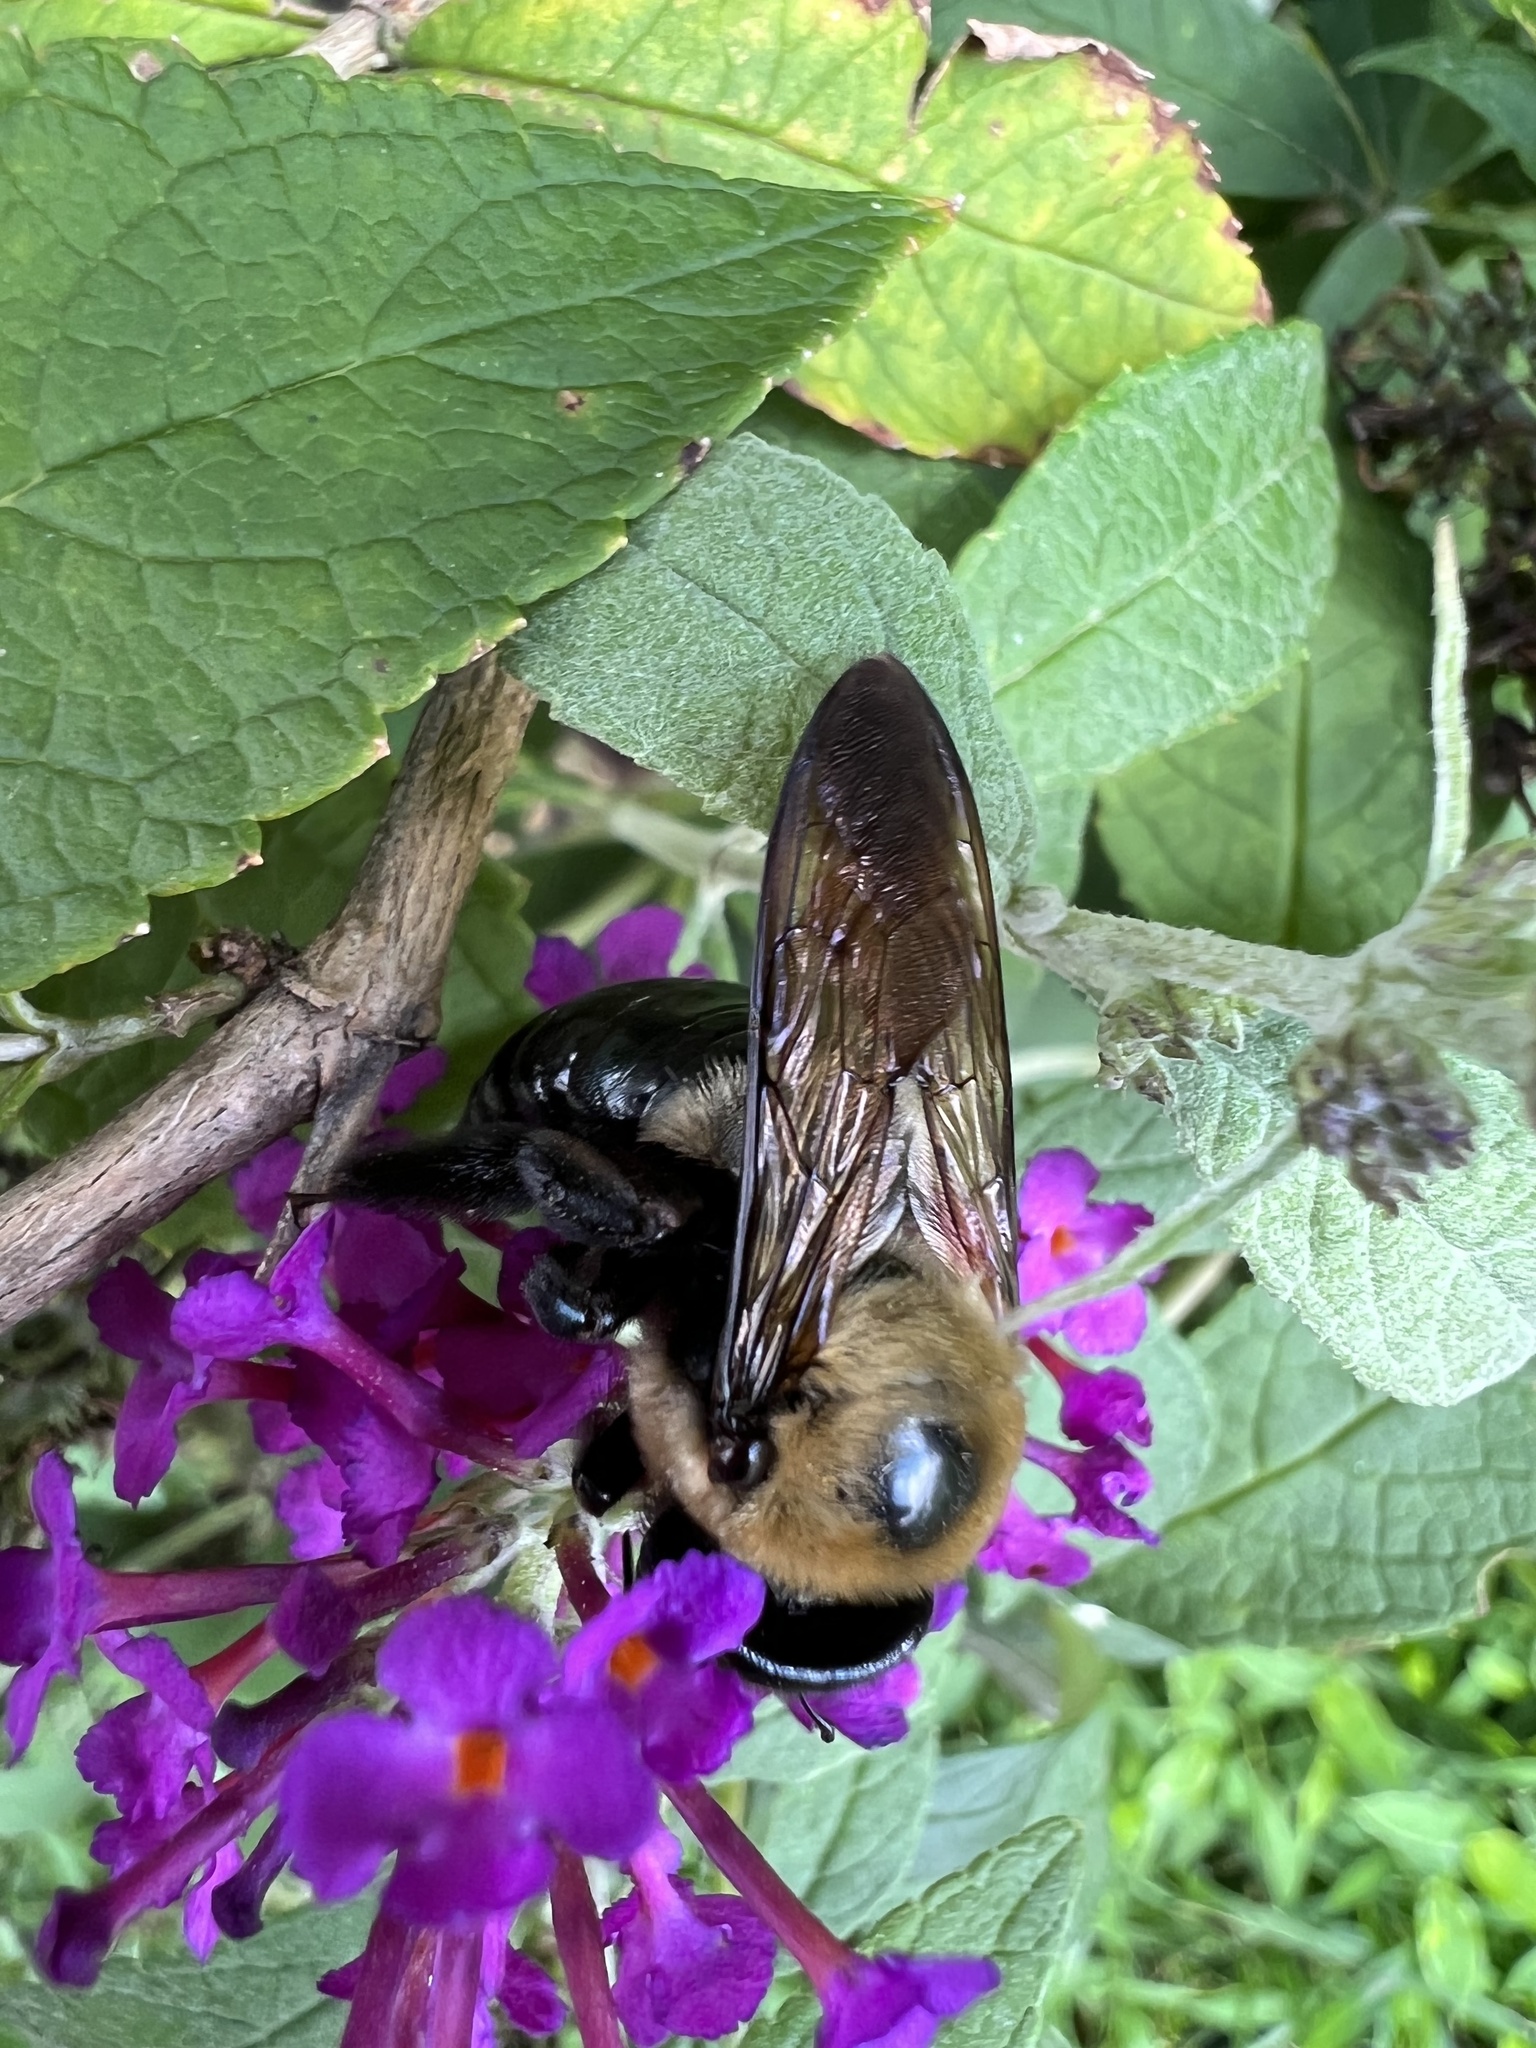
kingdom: Animalia
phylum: Arthropoda
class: Insecta
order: Hymenoptera
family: Apidae
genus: Xylocopa
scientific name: Xylocopa virginica
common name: Carpenter bee
